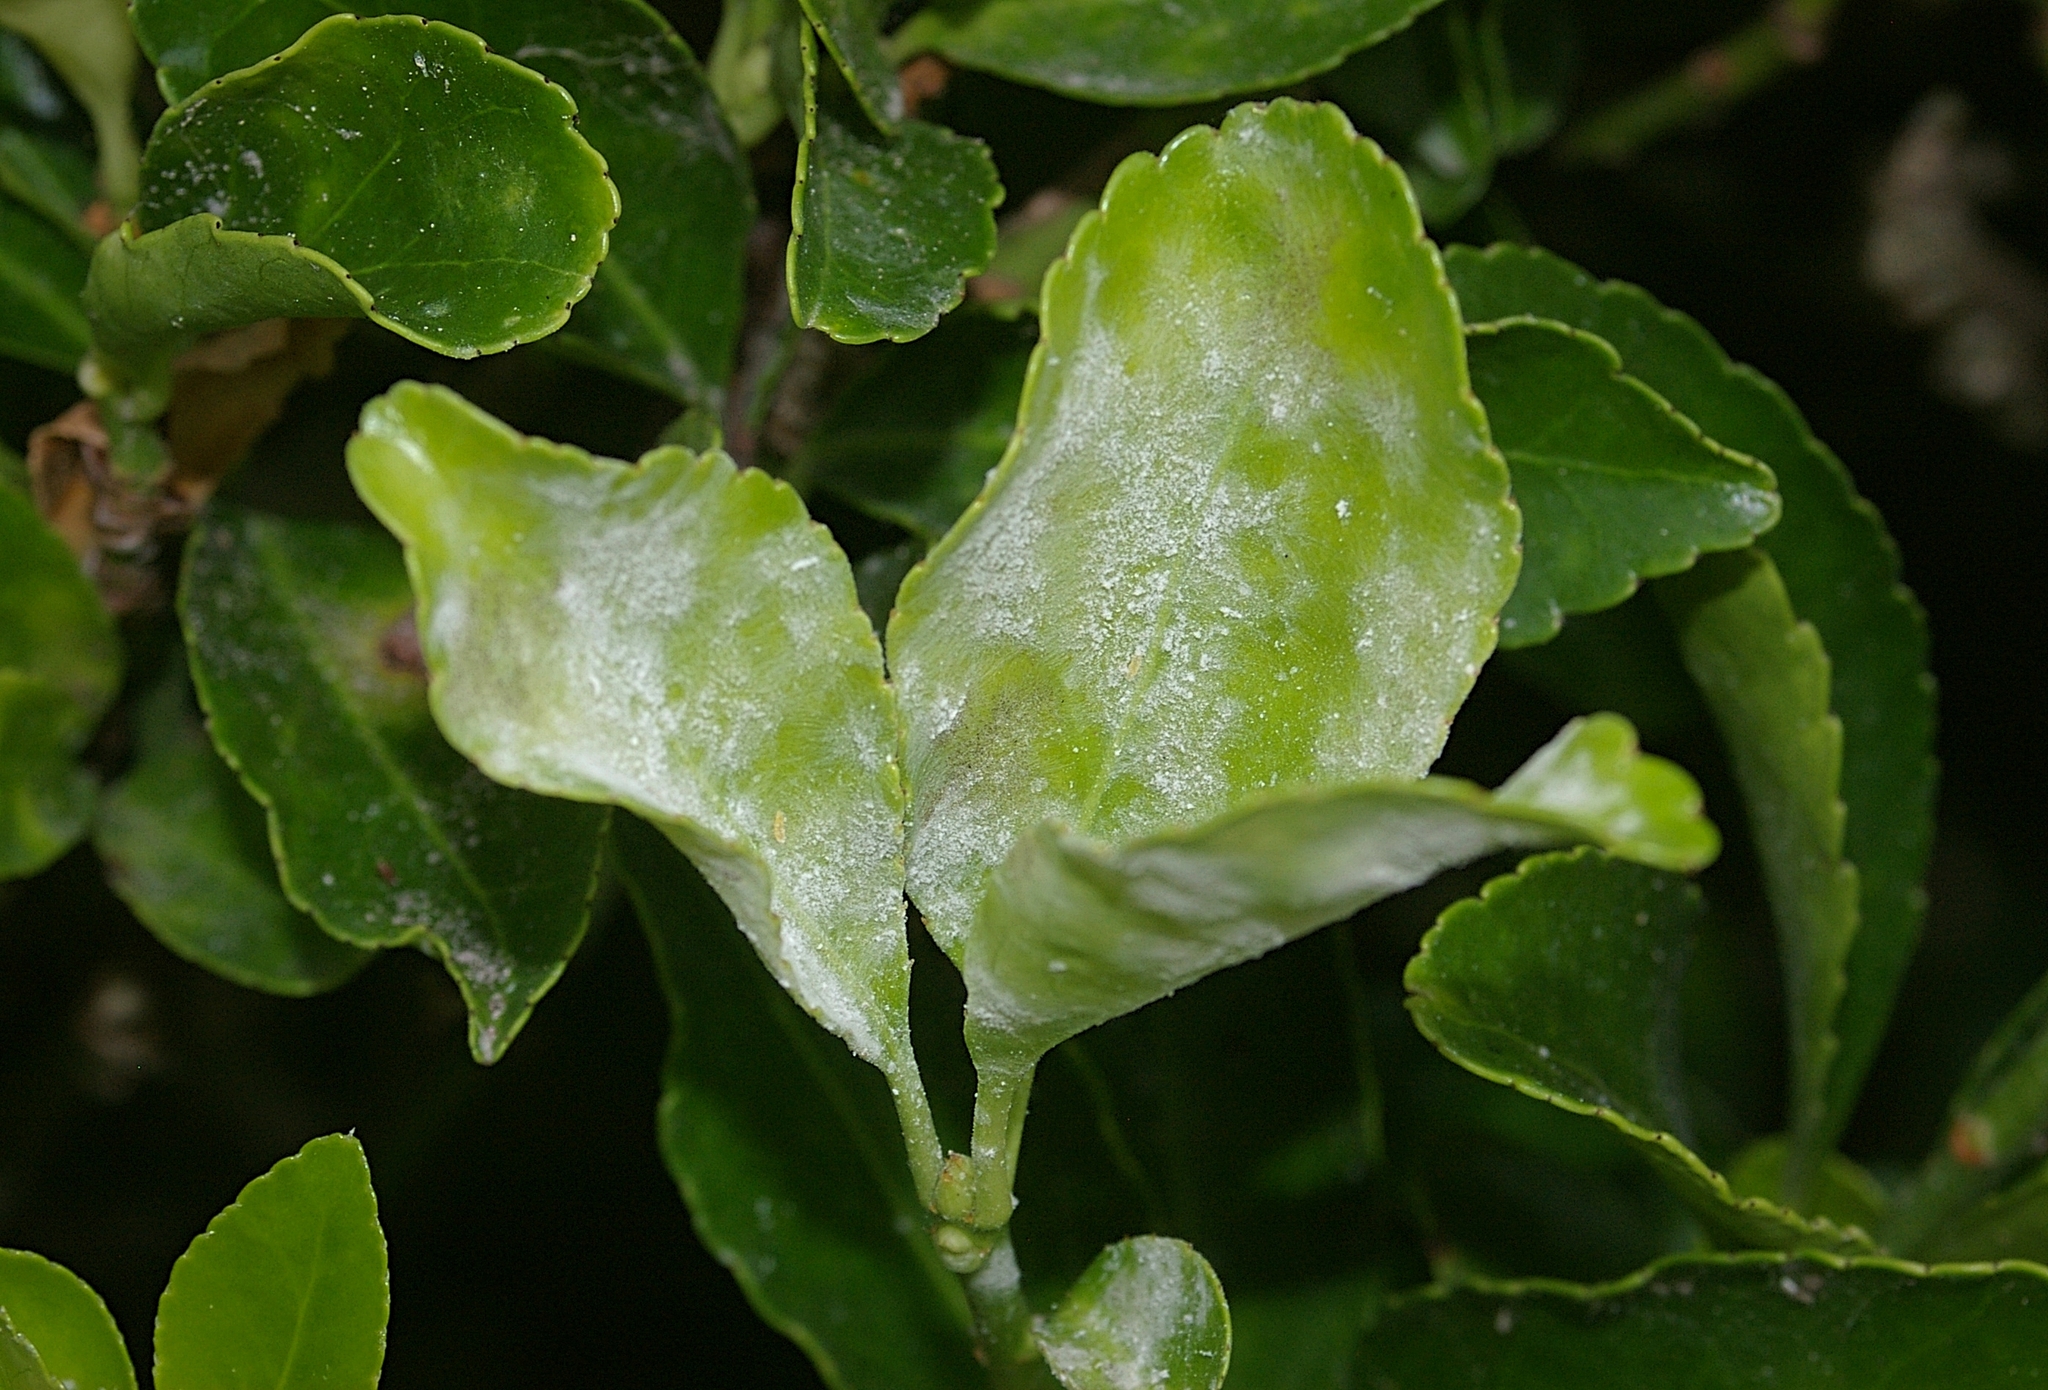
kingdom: Fungi
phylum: Ascomycota
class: Leotiomycetes
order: Helotiales
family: Erysiphaceae
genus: Erysiphe
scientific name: Erysiphe euonymicola
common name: Spindletree mildew
